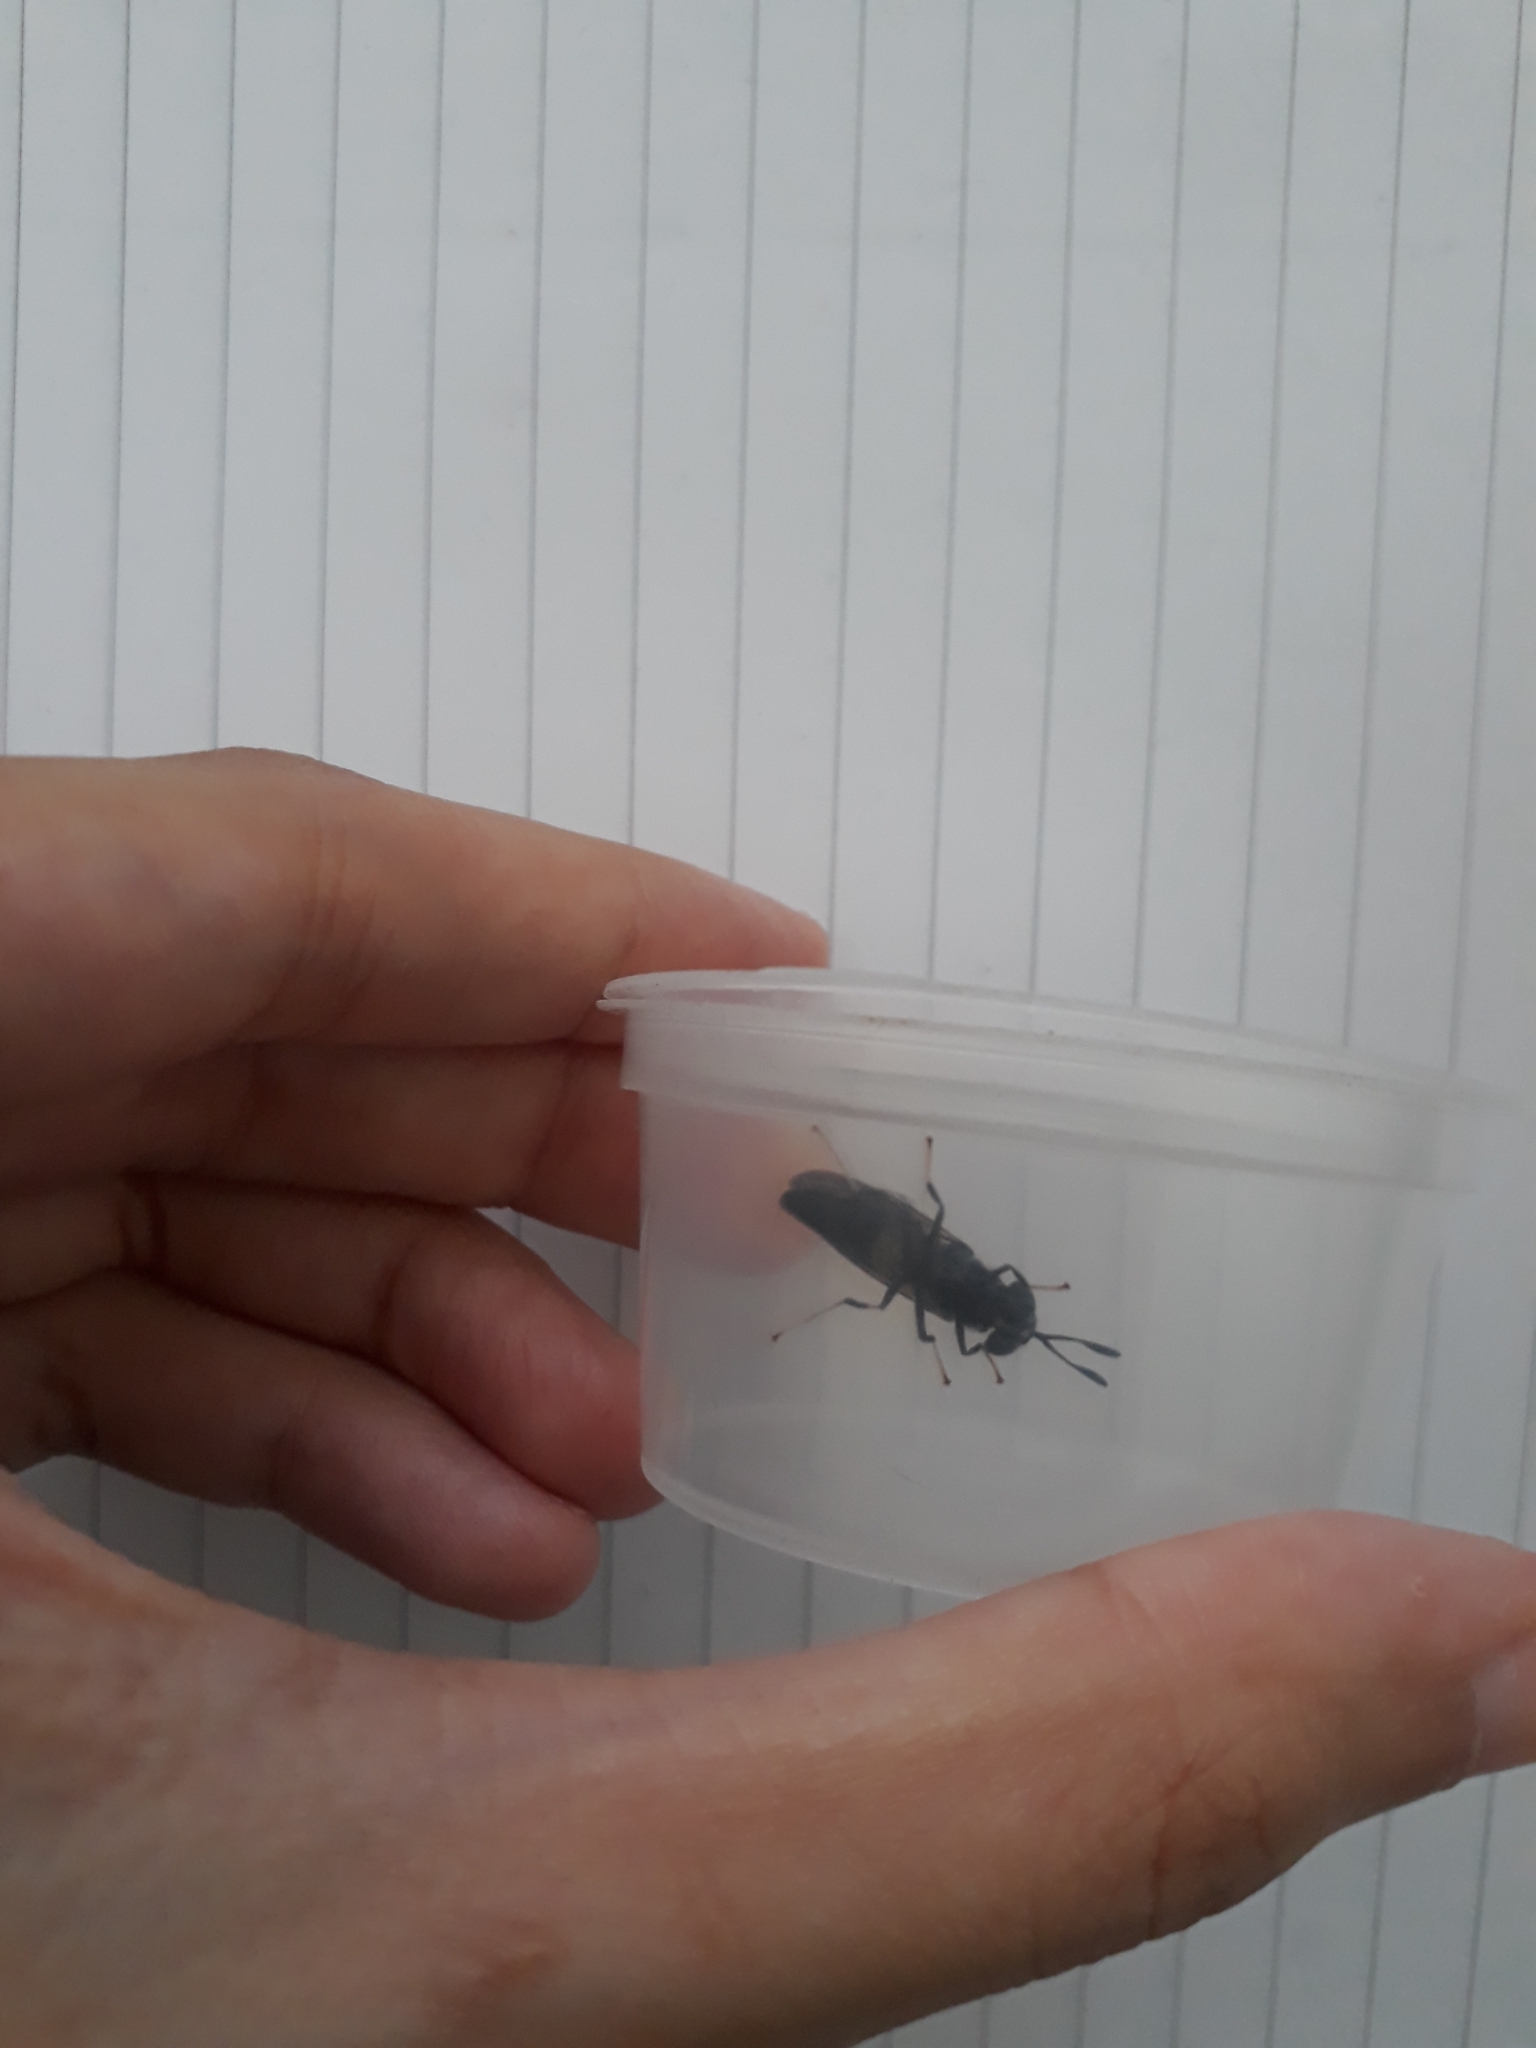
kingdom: Animalia
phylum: Arthropoda
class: Insecta
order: Diptera
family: Stratiomyidae
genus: Hermetia
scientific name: Hermetia illucens
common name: Black soldier fly
